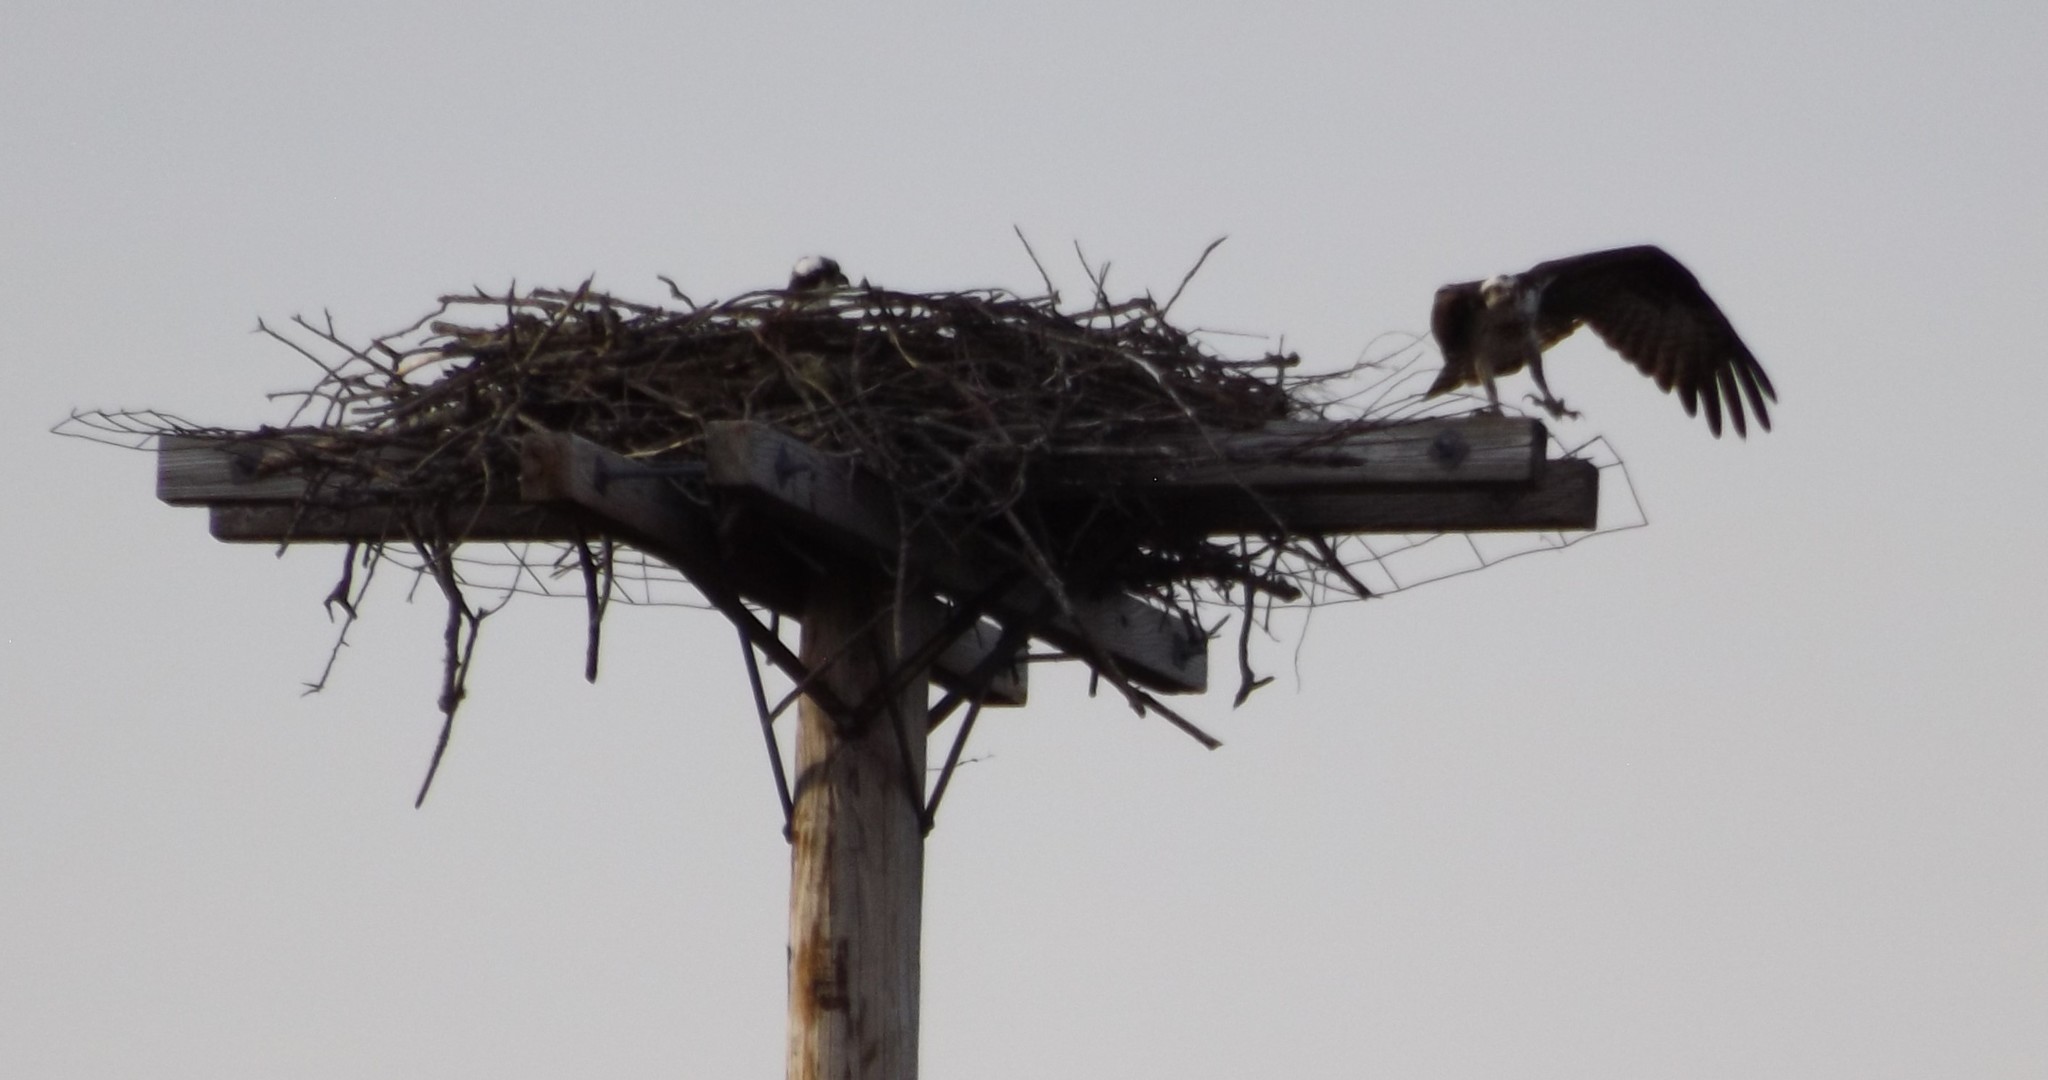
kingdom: Animalia
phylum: Chordata
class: Aves
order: Accipitriformes
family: Pandionidae
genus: Pandion
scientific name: Pandion haliaetus
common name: Osprey
